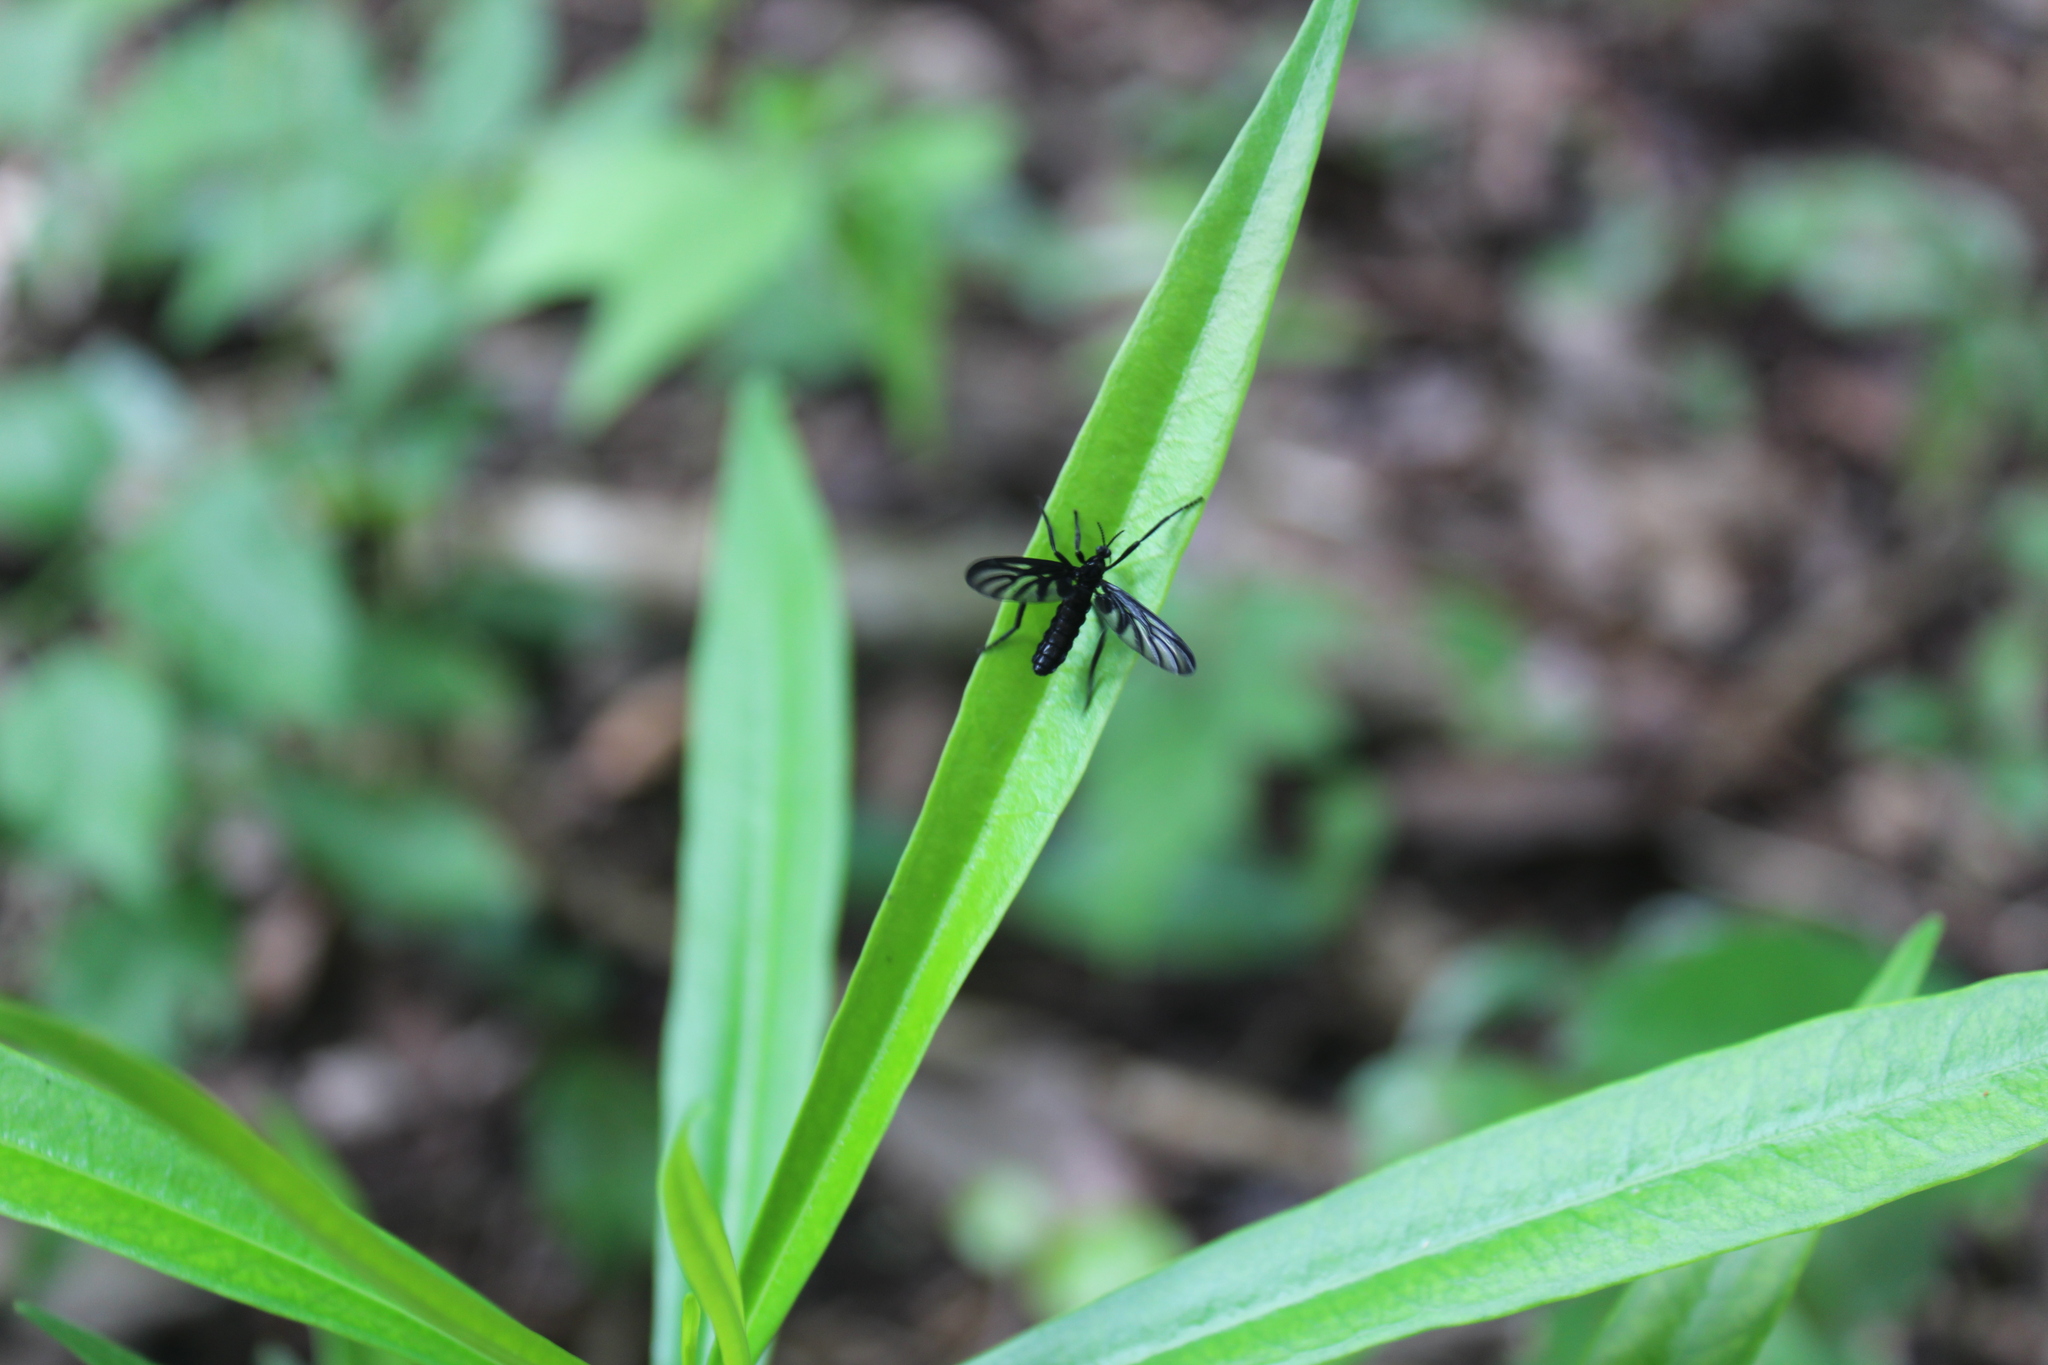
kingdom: Animalia
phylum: Arthropoda
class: Insecta
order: Diptera
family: Bibionidae
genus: Plecia
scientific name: Plecia plagiata
